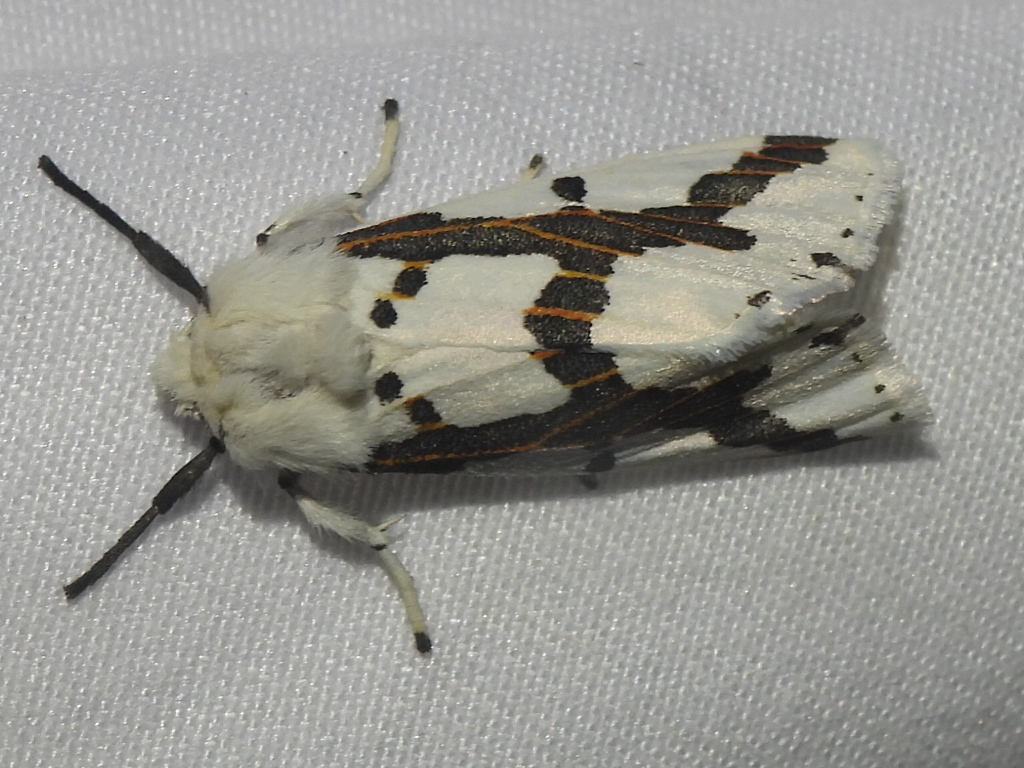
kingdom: Animalia
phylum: Arthropoda
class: Insecta
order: Lepidoptera
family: Erebidae
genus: Euerythra
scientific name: Euerythra phasma
